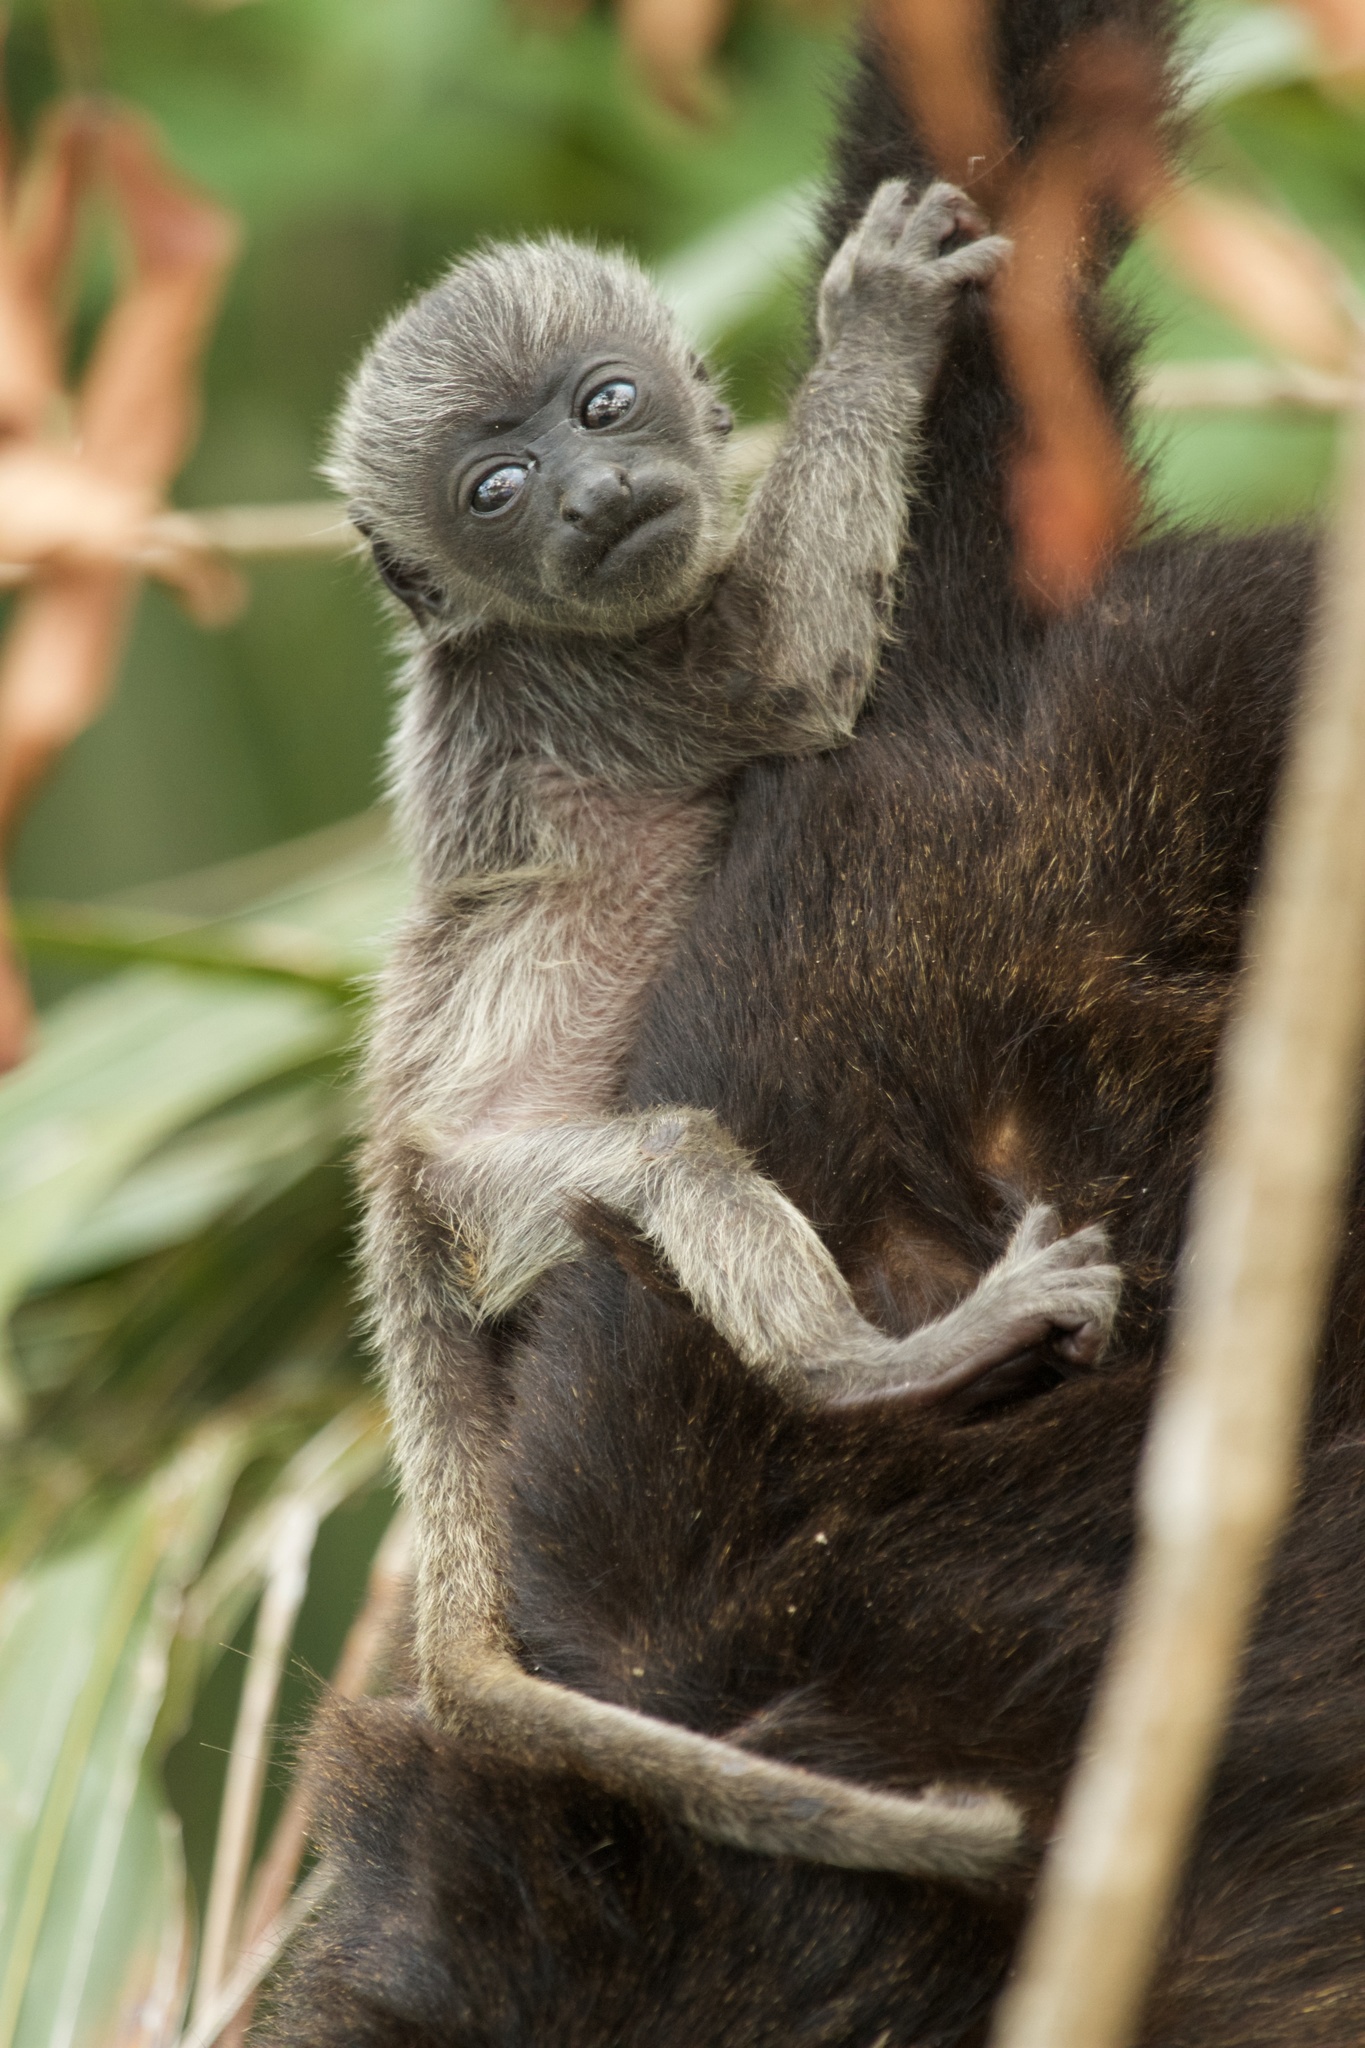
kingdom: Animalia
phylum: Chordata
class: Mammalia
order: Primates
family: Atelidae
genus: Alouatta
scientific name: Alouatta palliata
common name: Mantled howler
